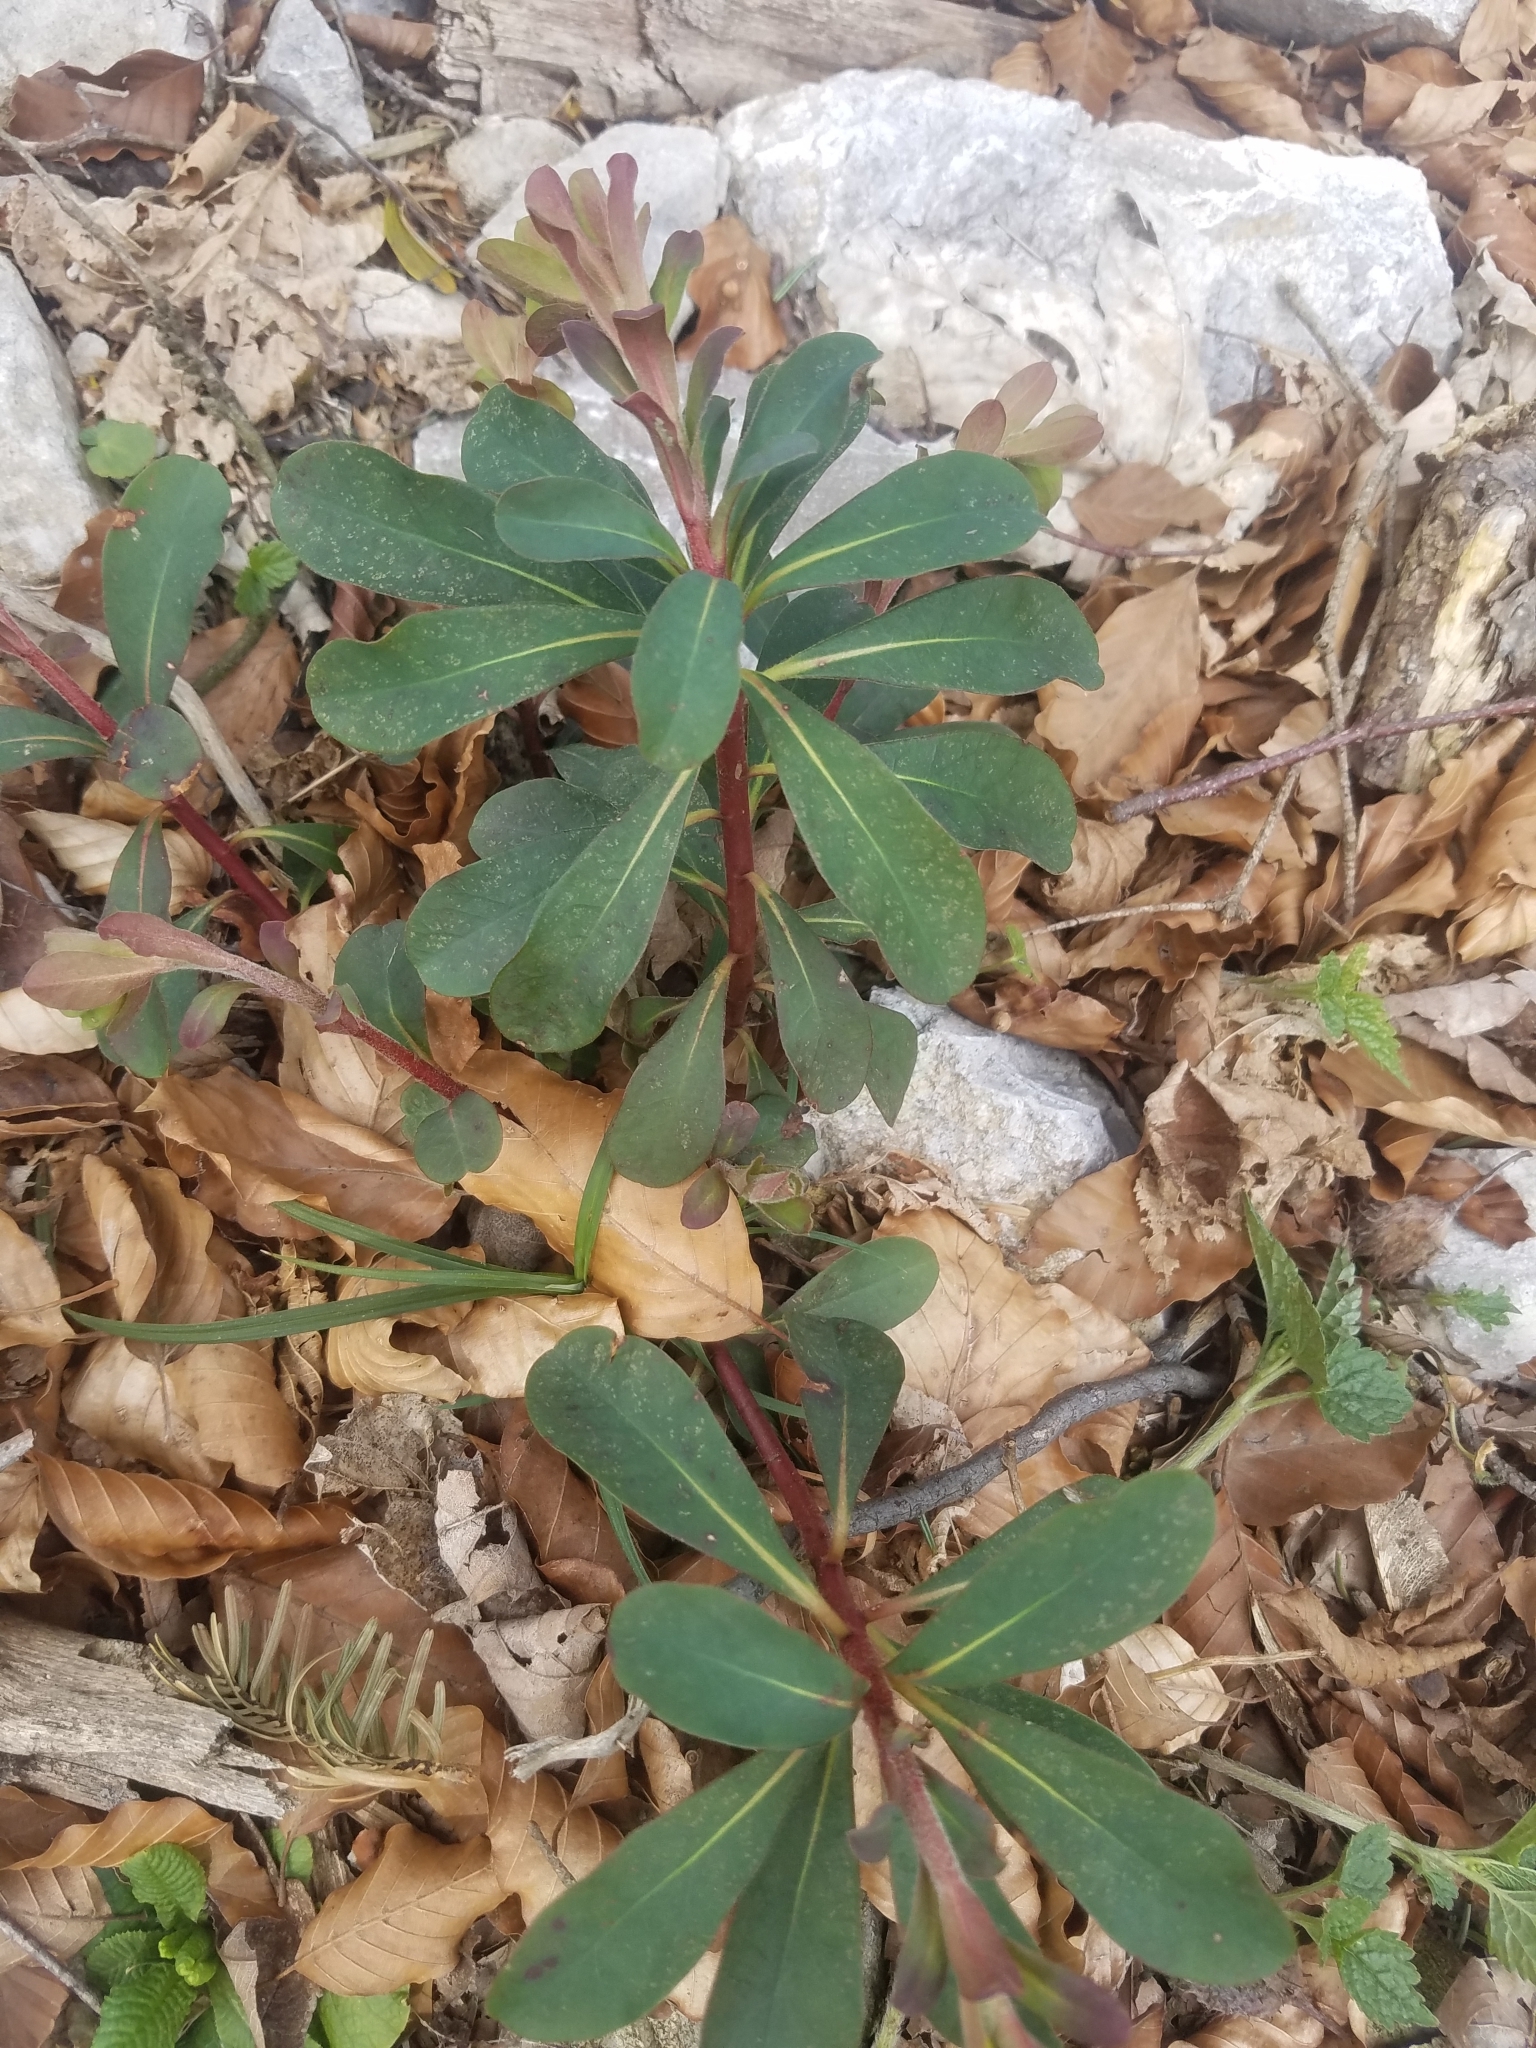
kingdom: Plantae
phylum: Tracheophyta
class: Magnoliopsida
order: Malpighiales
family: Euphorbiaceae
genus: Euphorbia
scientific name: Euphorbia amygdaloides
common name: Wood spurge
